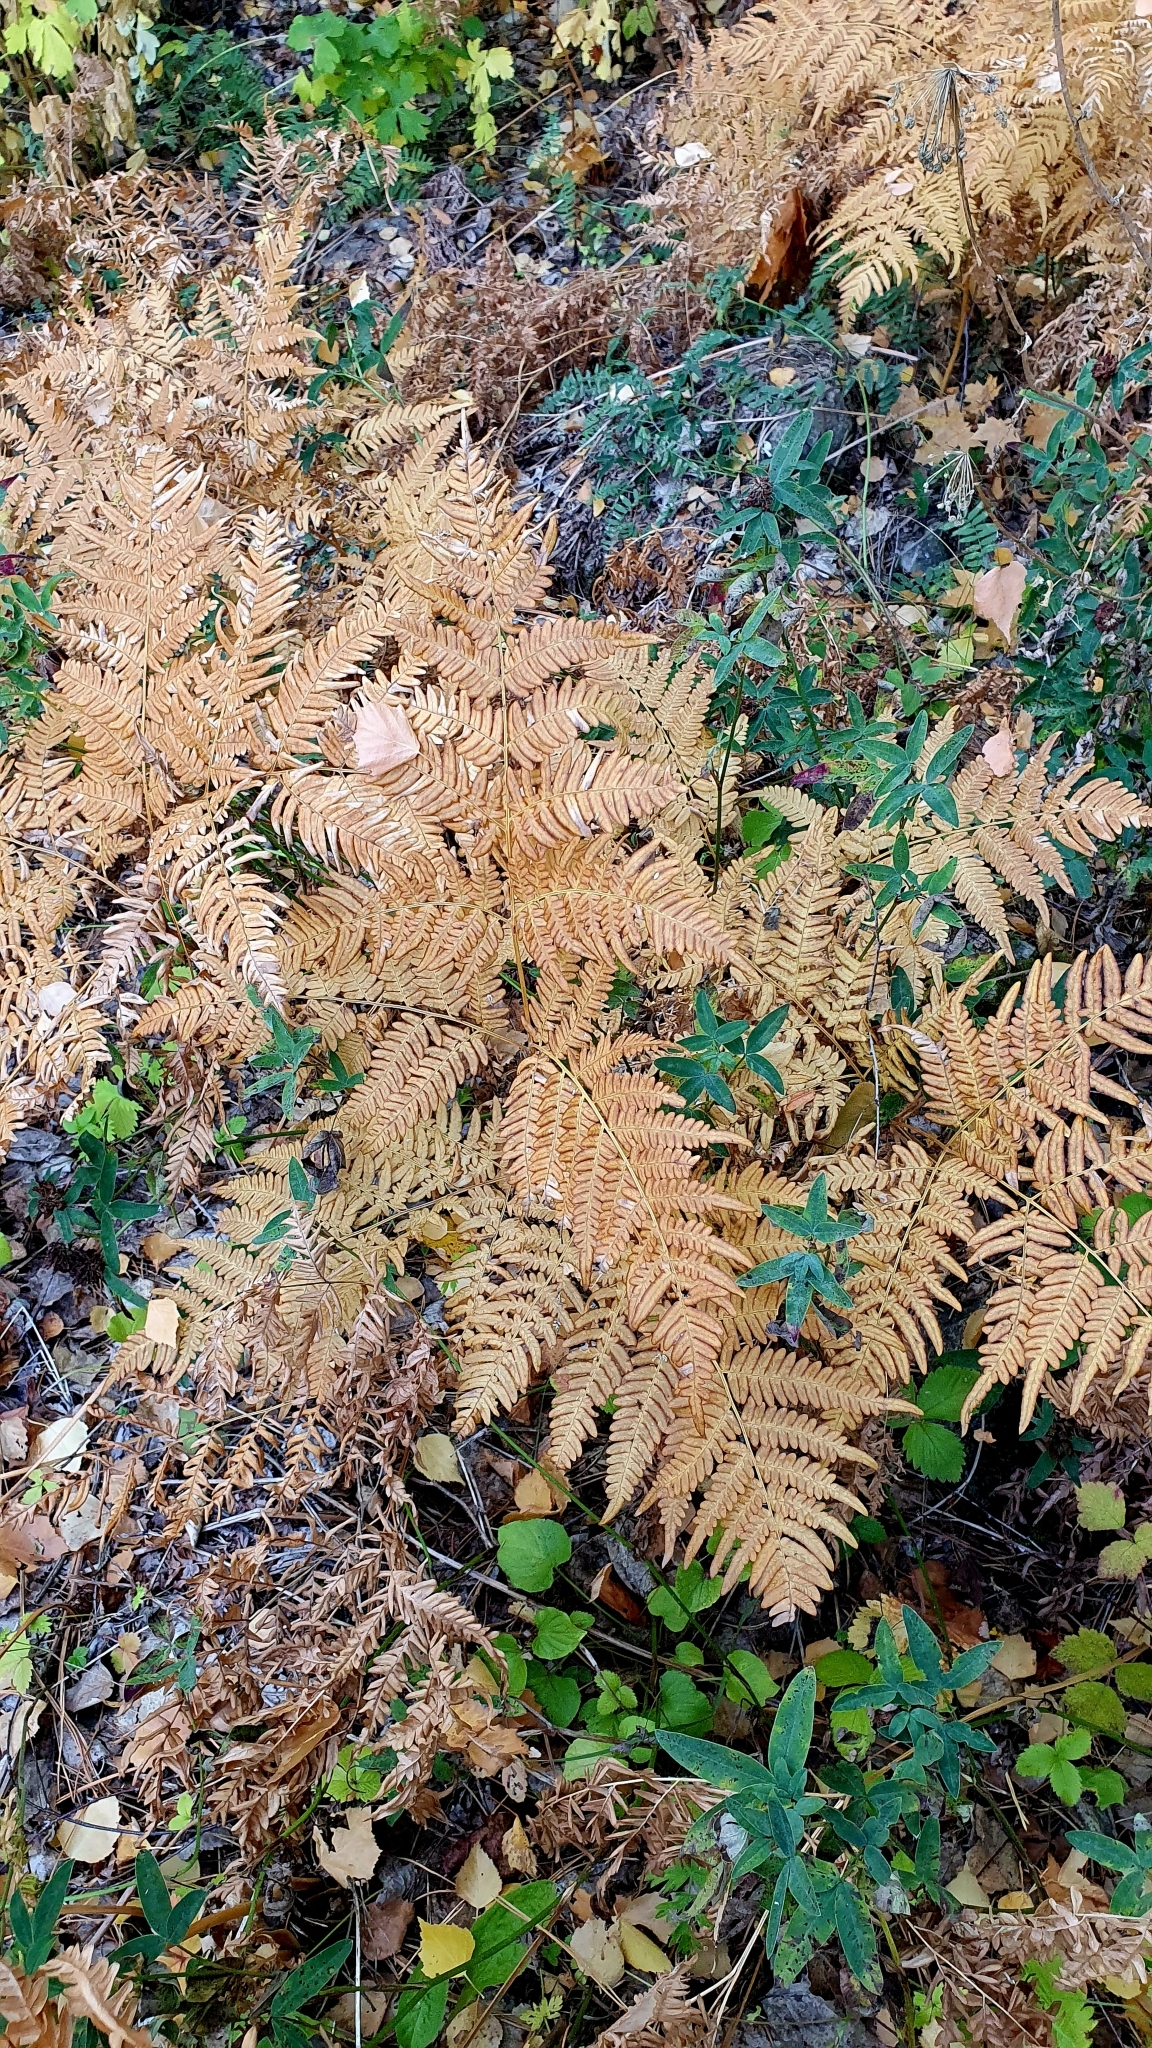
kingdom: Plantae
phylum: Tracheophyta
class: Polypodiopsida
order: Polypodiales
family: Dennstaedtiaceae
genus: Pteridium
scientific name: Pteridium aquilinum
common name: Bracken
